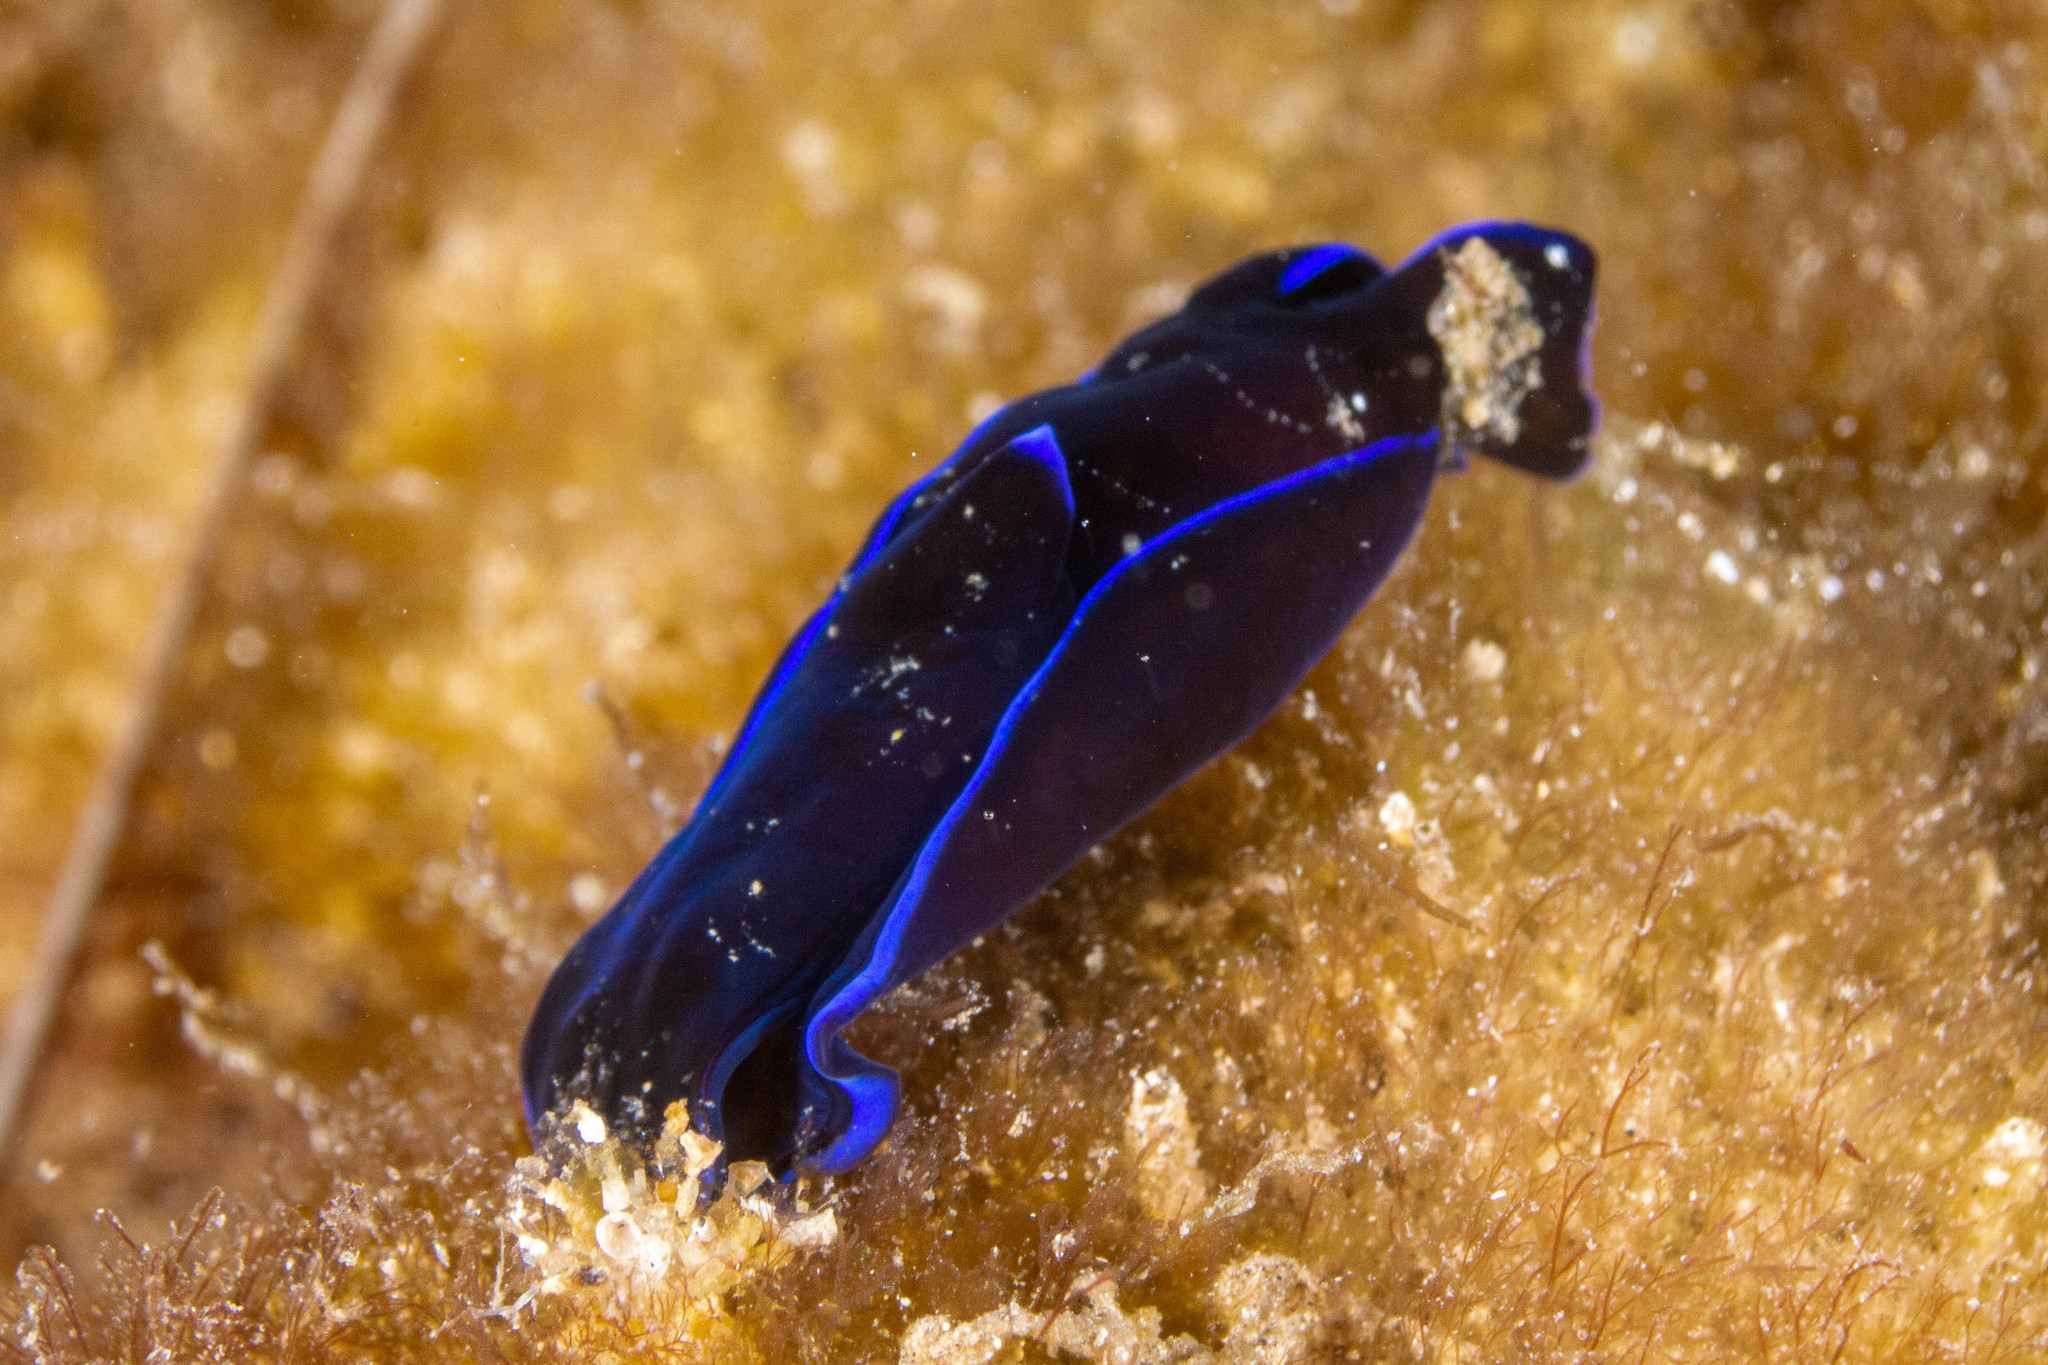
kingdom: Animalia
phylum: Mollusca
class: Gastropoda
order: Cephalaspidea
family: Aglajidae
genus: Tubulophilinopsis
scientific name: Tubulophilinopsis gardineri
